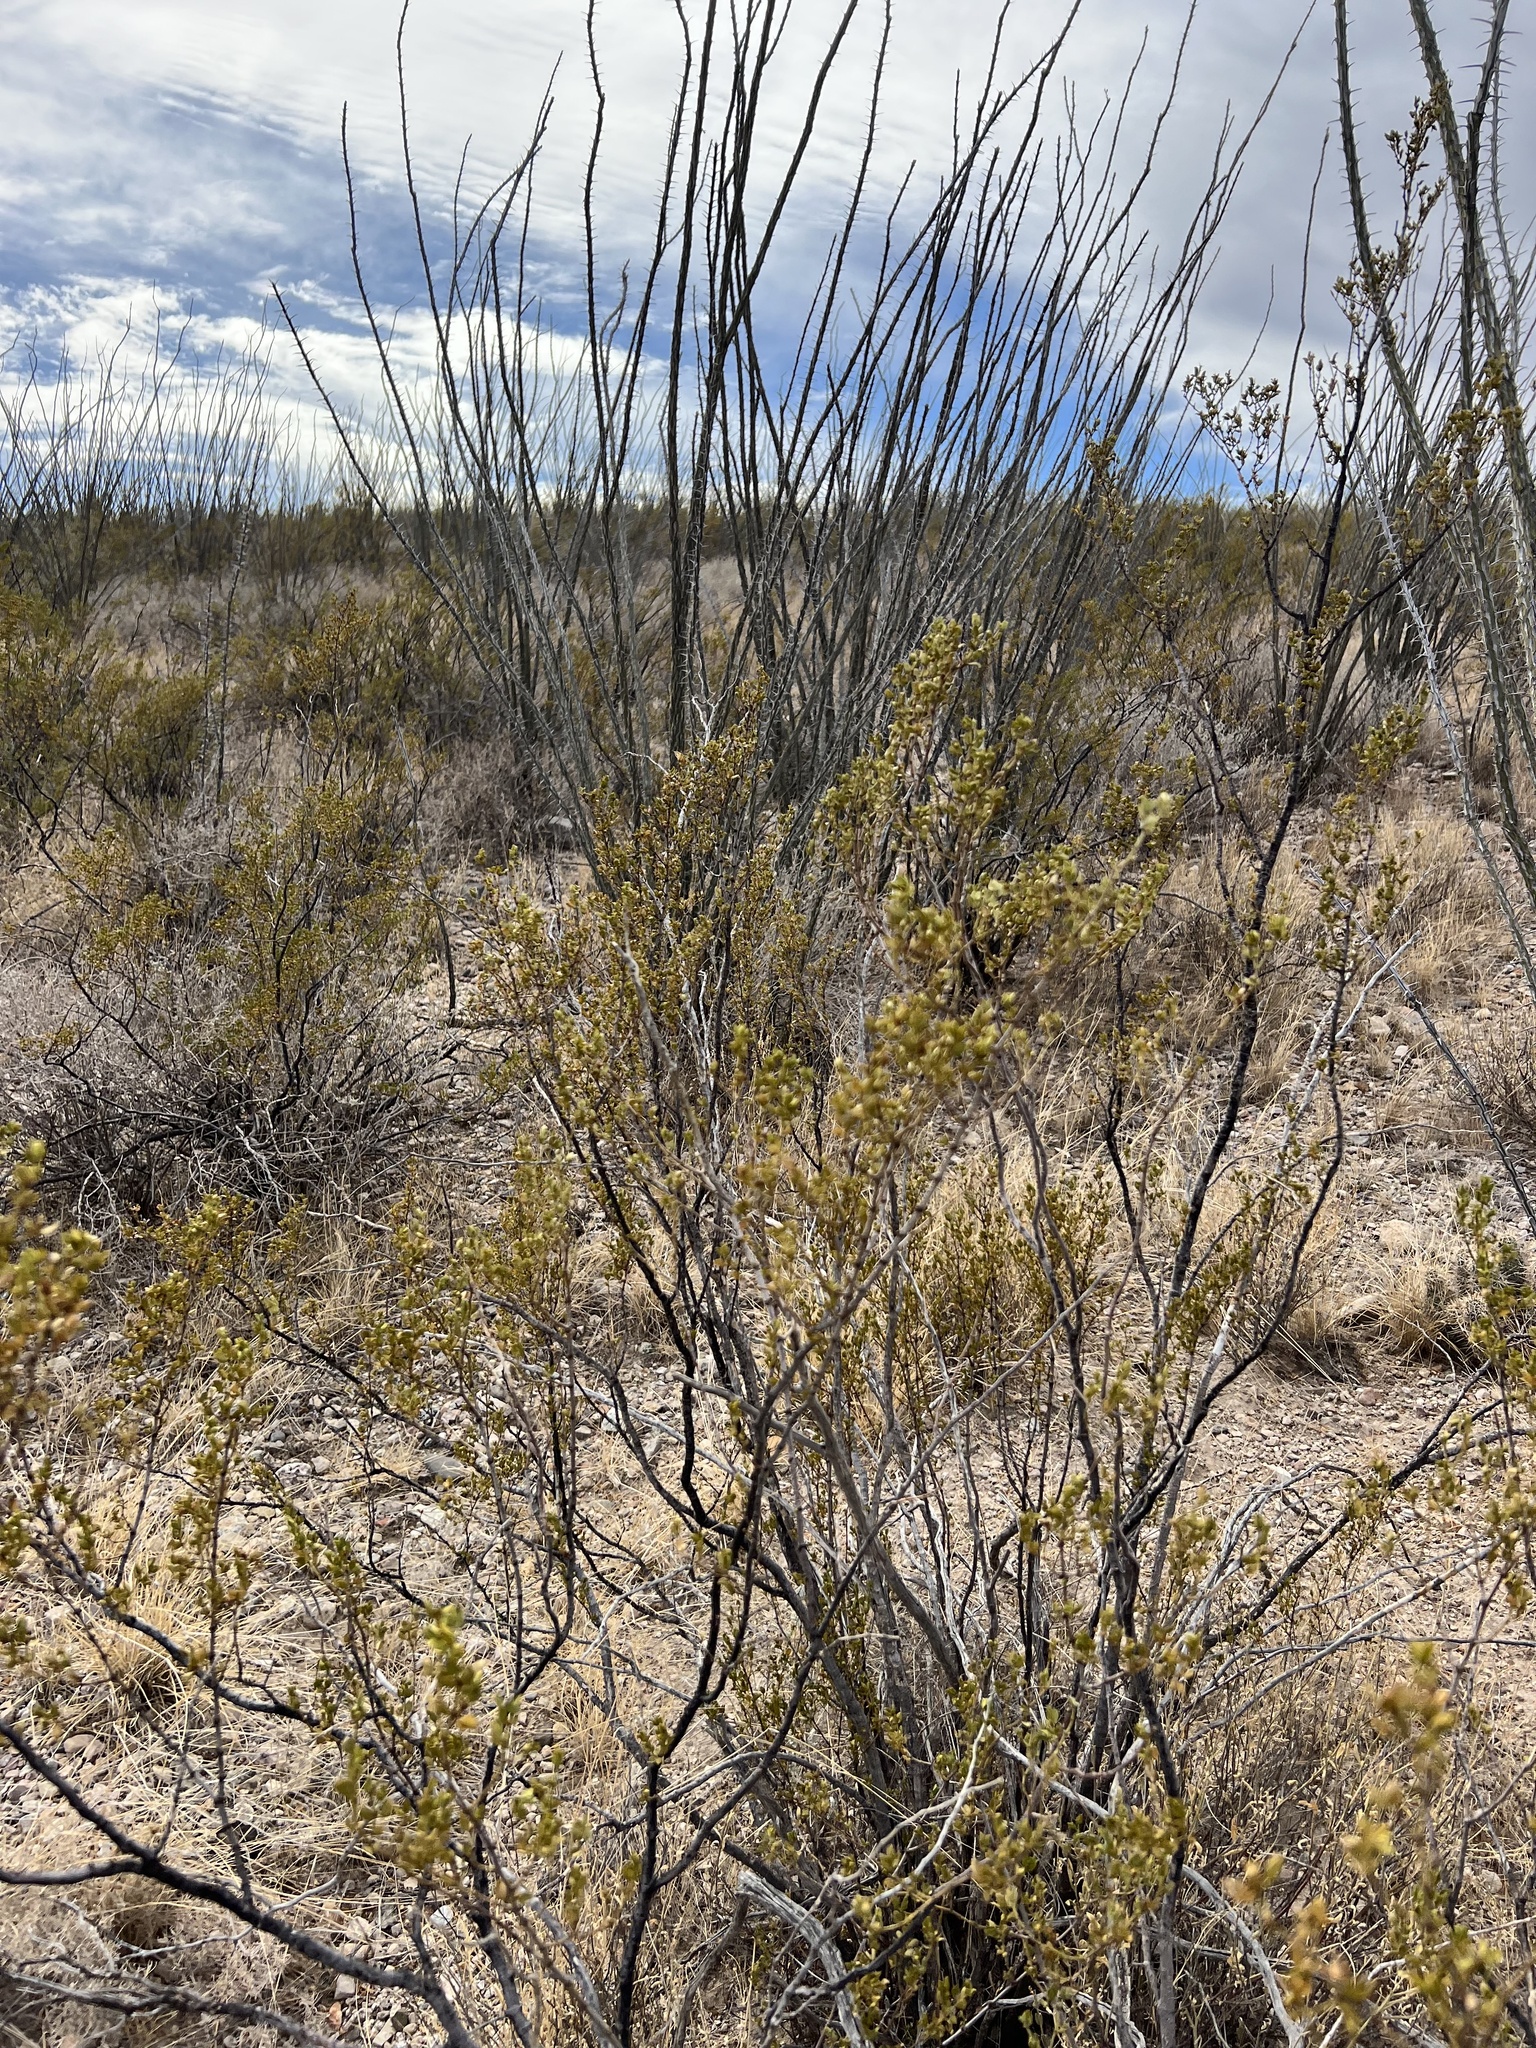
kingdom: Plantae
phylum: Tracheophyta
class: Magnoliopsida
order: Zygophyllales
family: Zygophyllaceae
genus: Larrea
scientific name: Larrea tridentata
